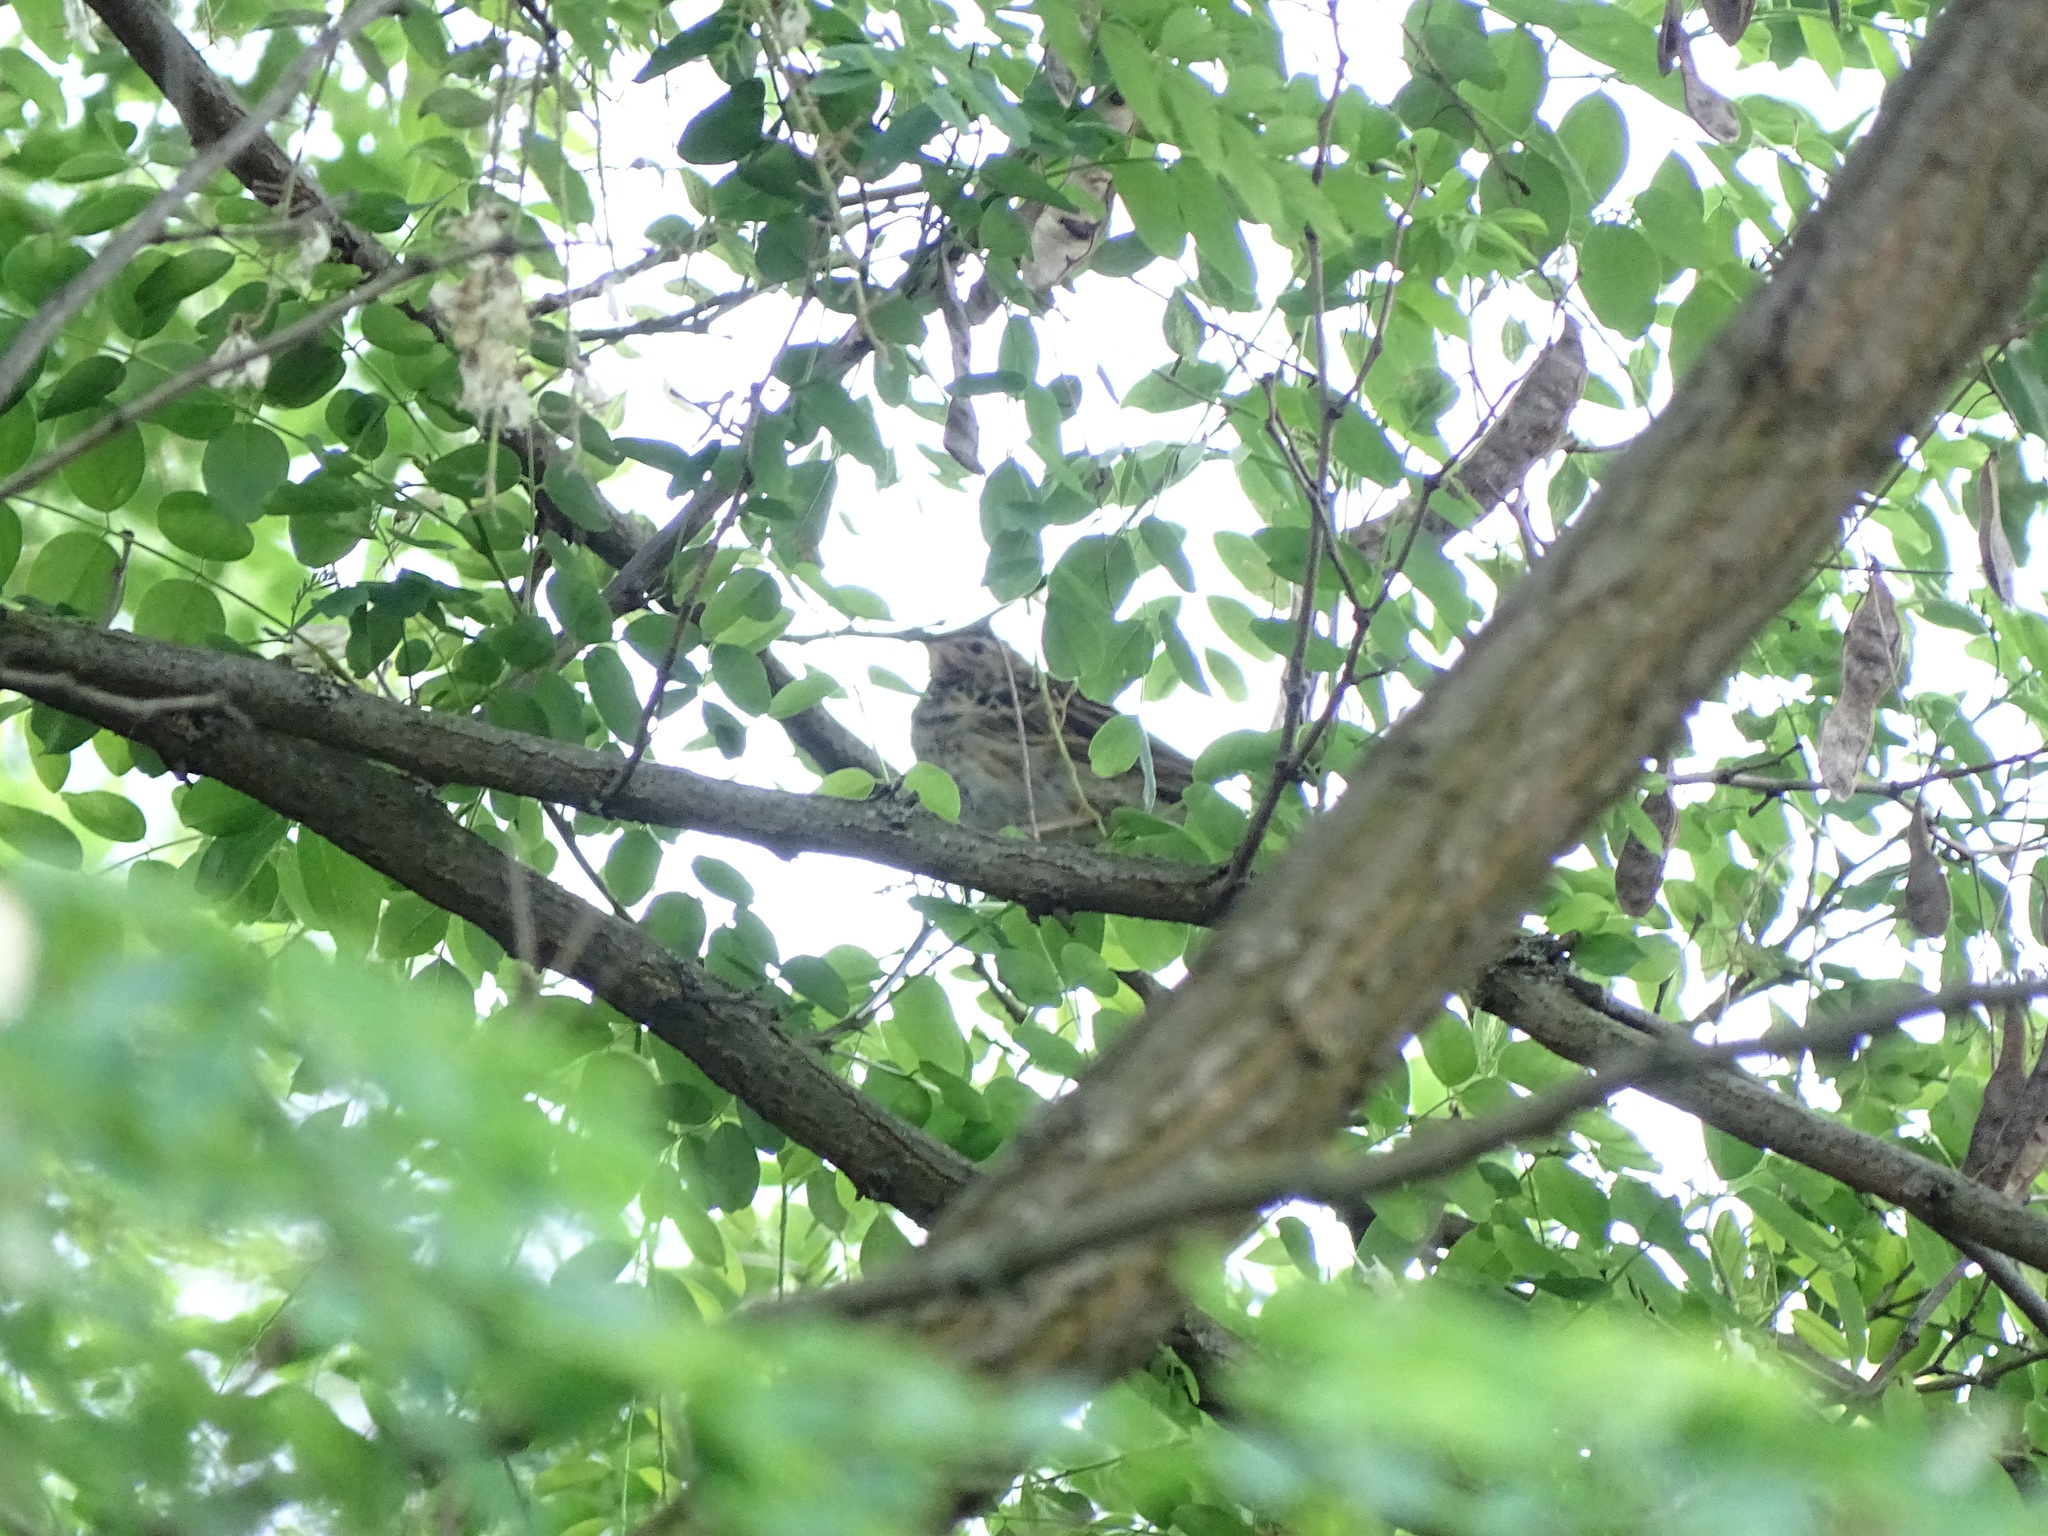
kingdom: Animalia
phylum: Chordata
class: Aves
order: Passeriformes
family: Motacillidae
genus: Anthus
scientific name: Anthus trivialis
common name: Tree pipit
